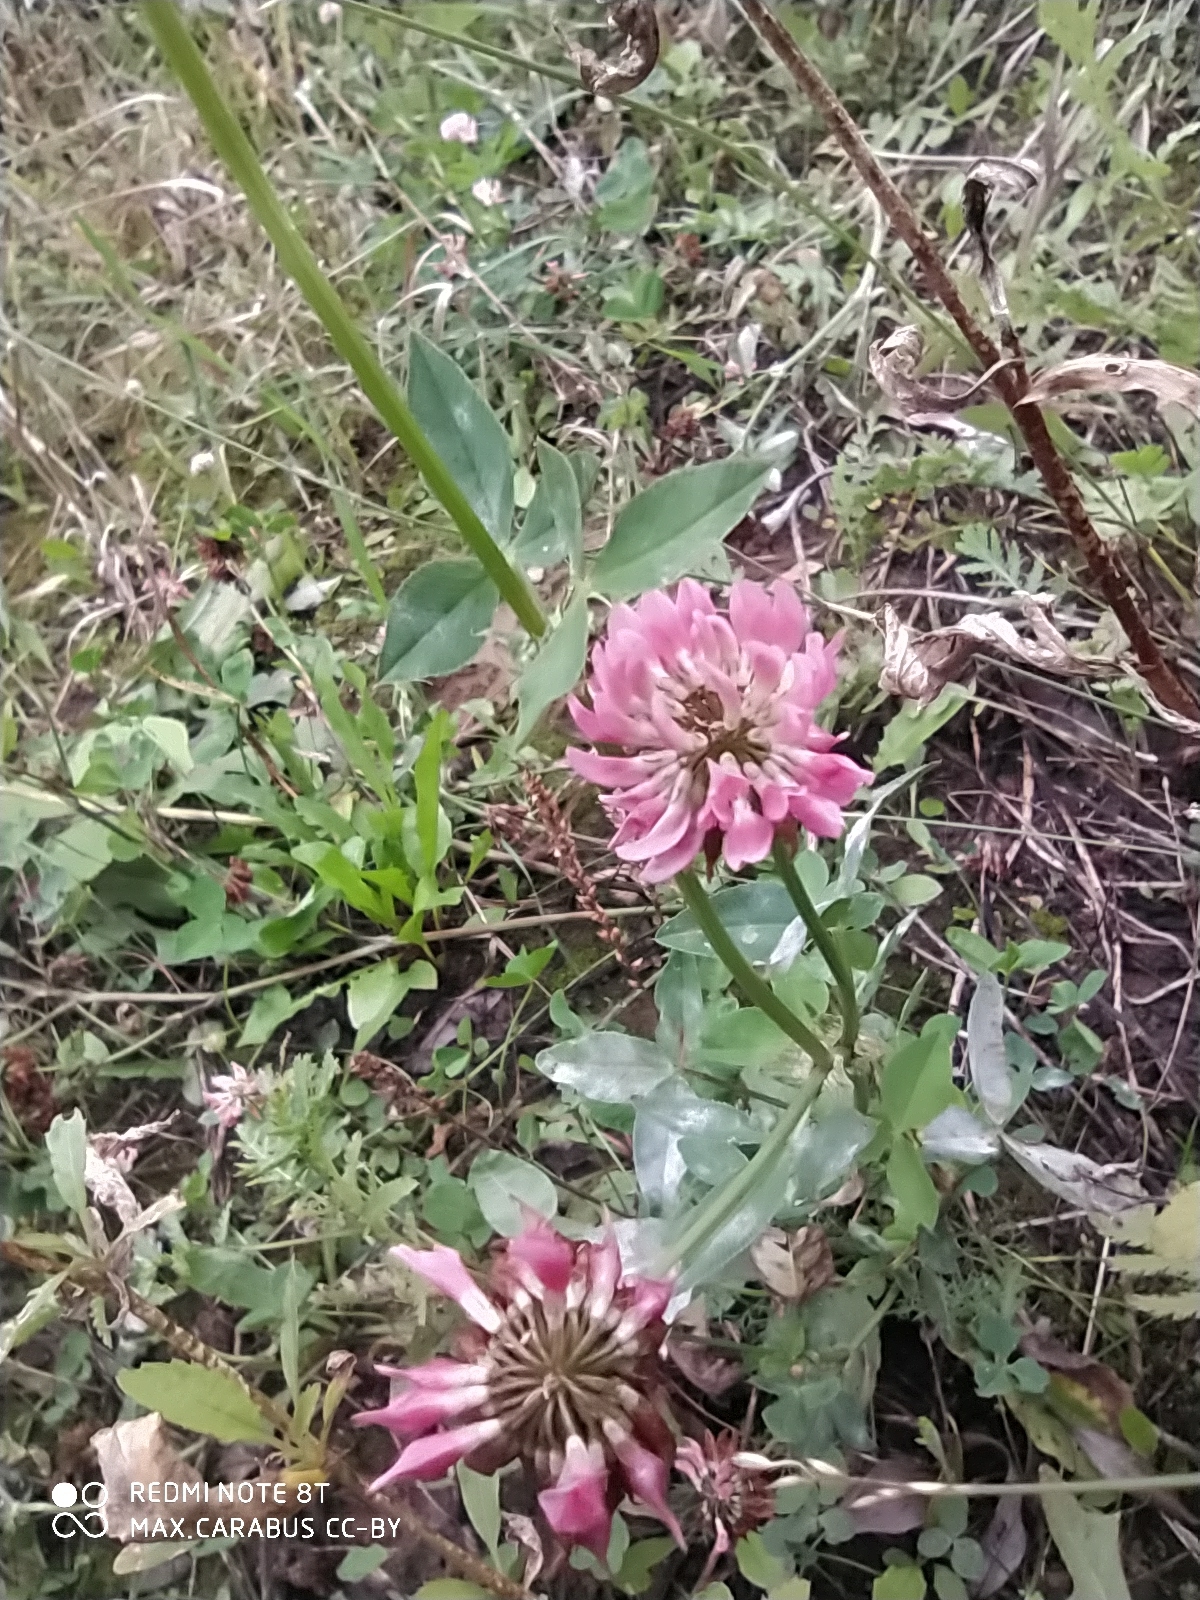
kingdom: Plantae
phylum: Tracheophyta
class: Magnoliopsida
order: Fabales
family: Fabaceae
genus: Trifolium
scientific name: Trifolium hybridum
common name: Alsike clover
